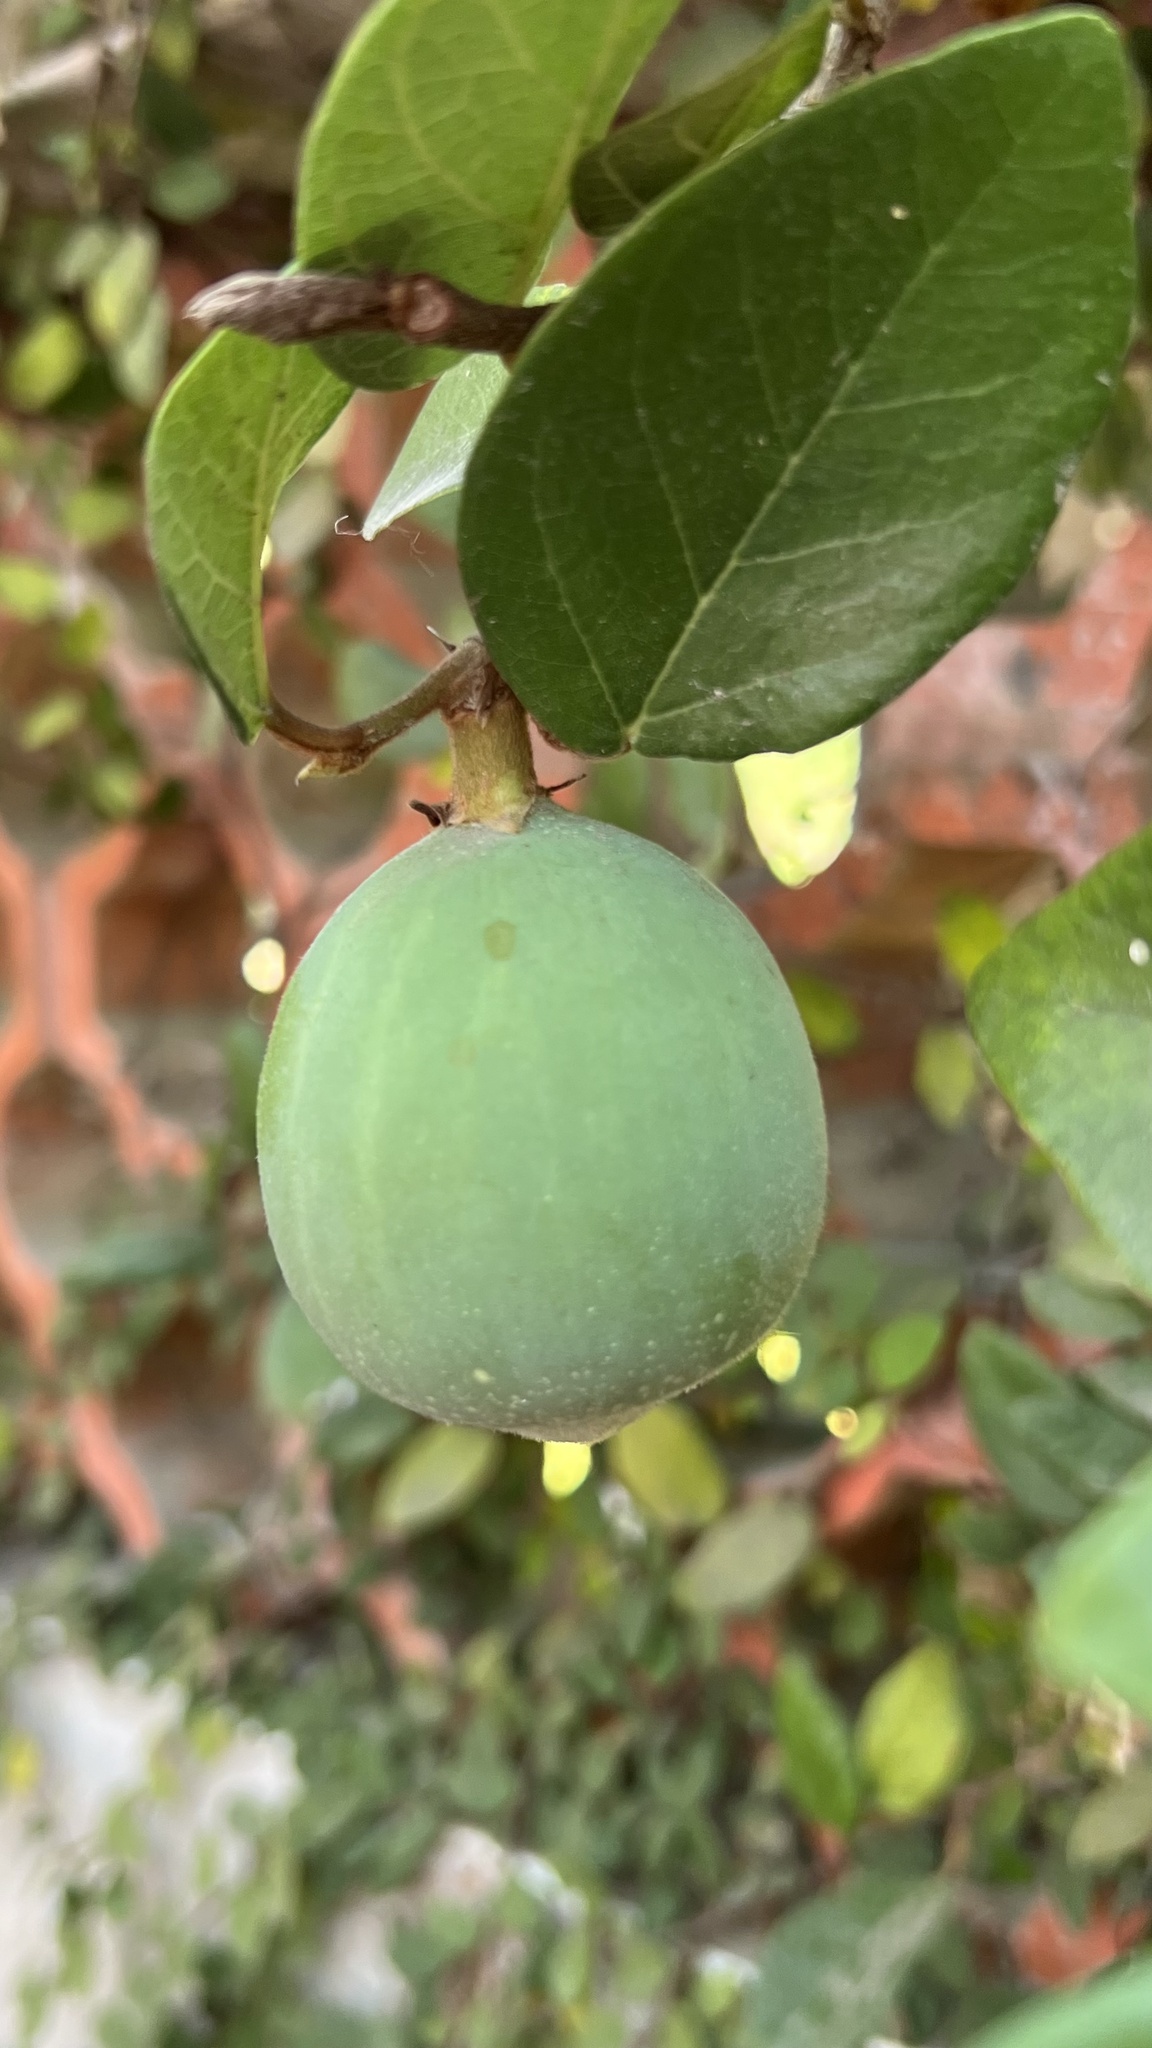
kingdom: Plantae
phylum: Tracheophyta
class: Magnoliopsida
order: Rosales
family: Moraceae
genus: Ficus
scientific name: Ficus pumila
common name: Climbingfig
